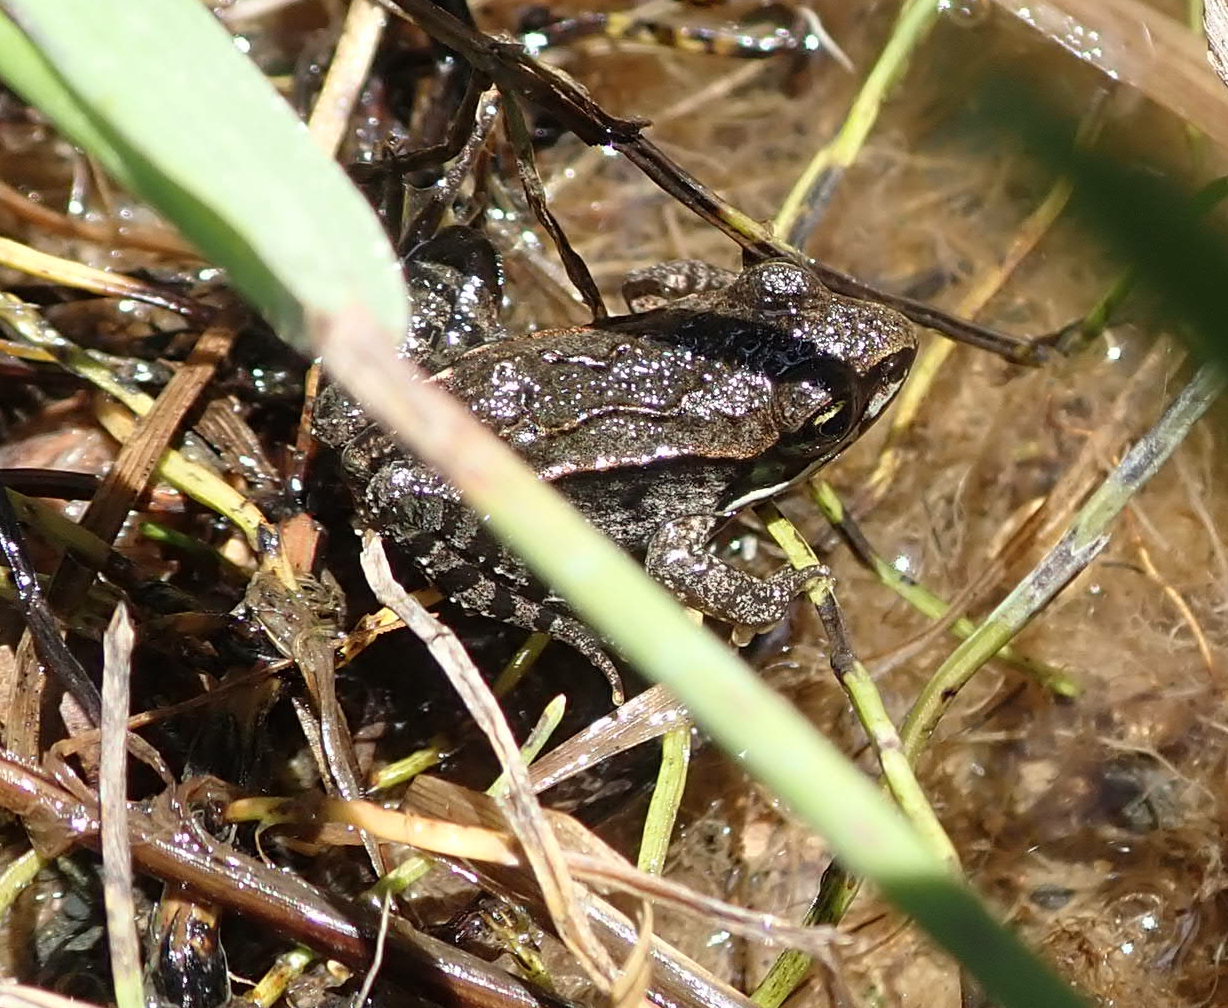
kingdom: Animalia
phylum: Chordata
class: Amphibia
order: Anura
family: Ranidae
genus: Lithobates
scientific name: Lithobates sylvaticus
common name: Wood frog
